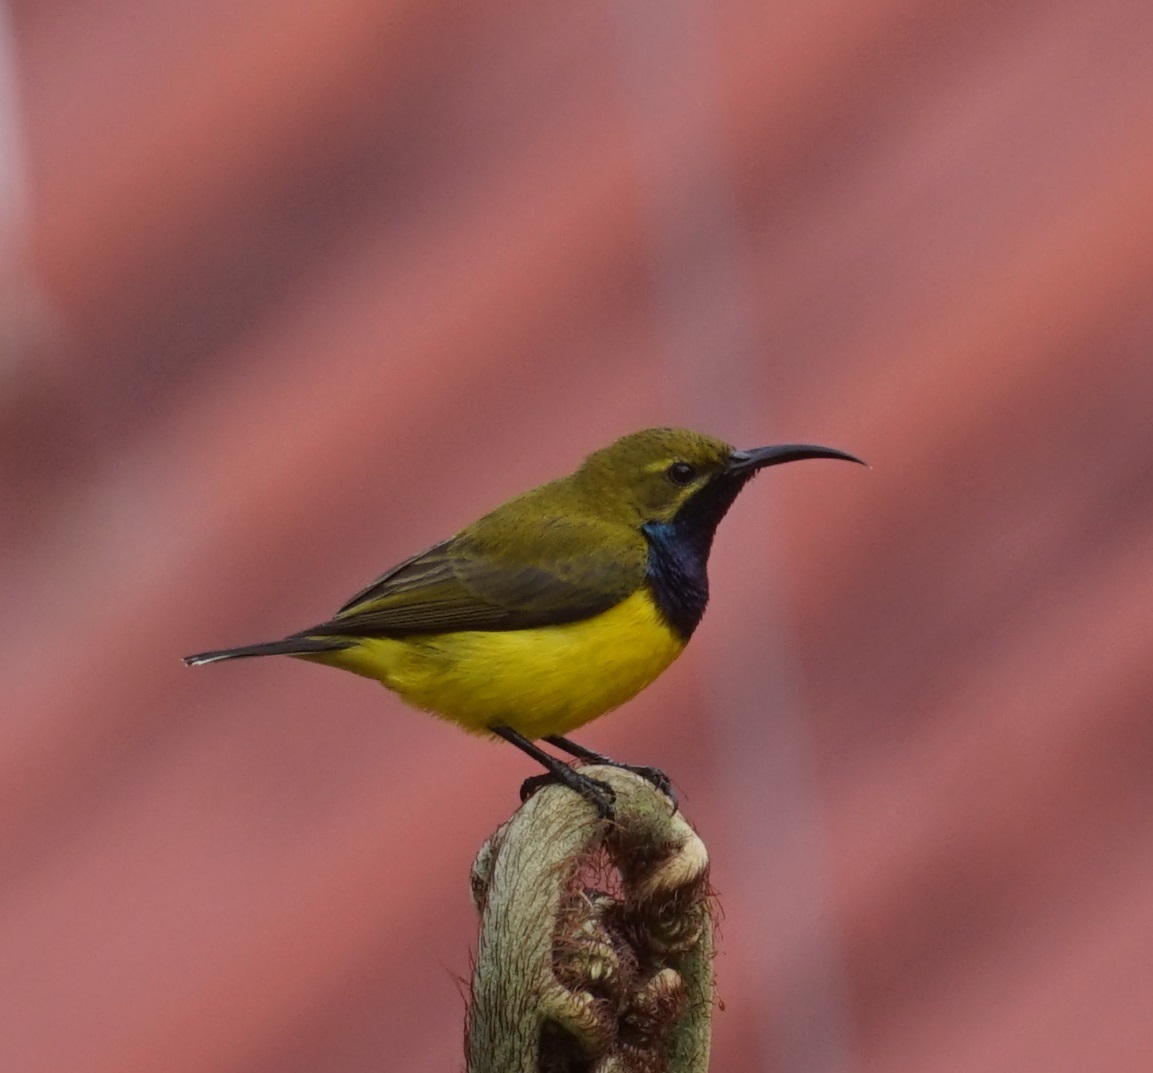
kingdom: Animalia
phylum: Chordata
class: Aves
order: Passeriformes
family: Nectariniidae
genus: Cinnyris
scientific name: Cinnyris
